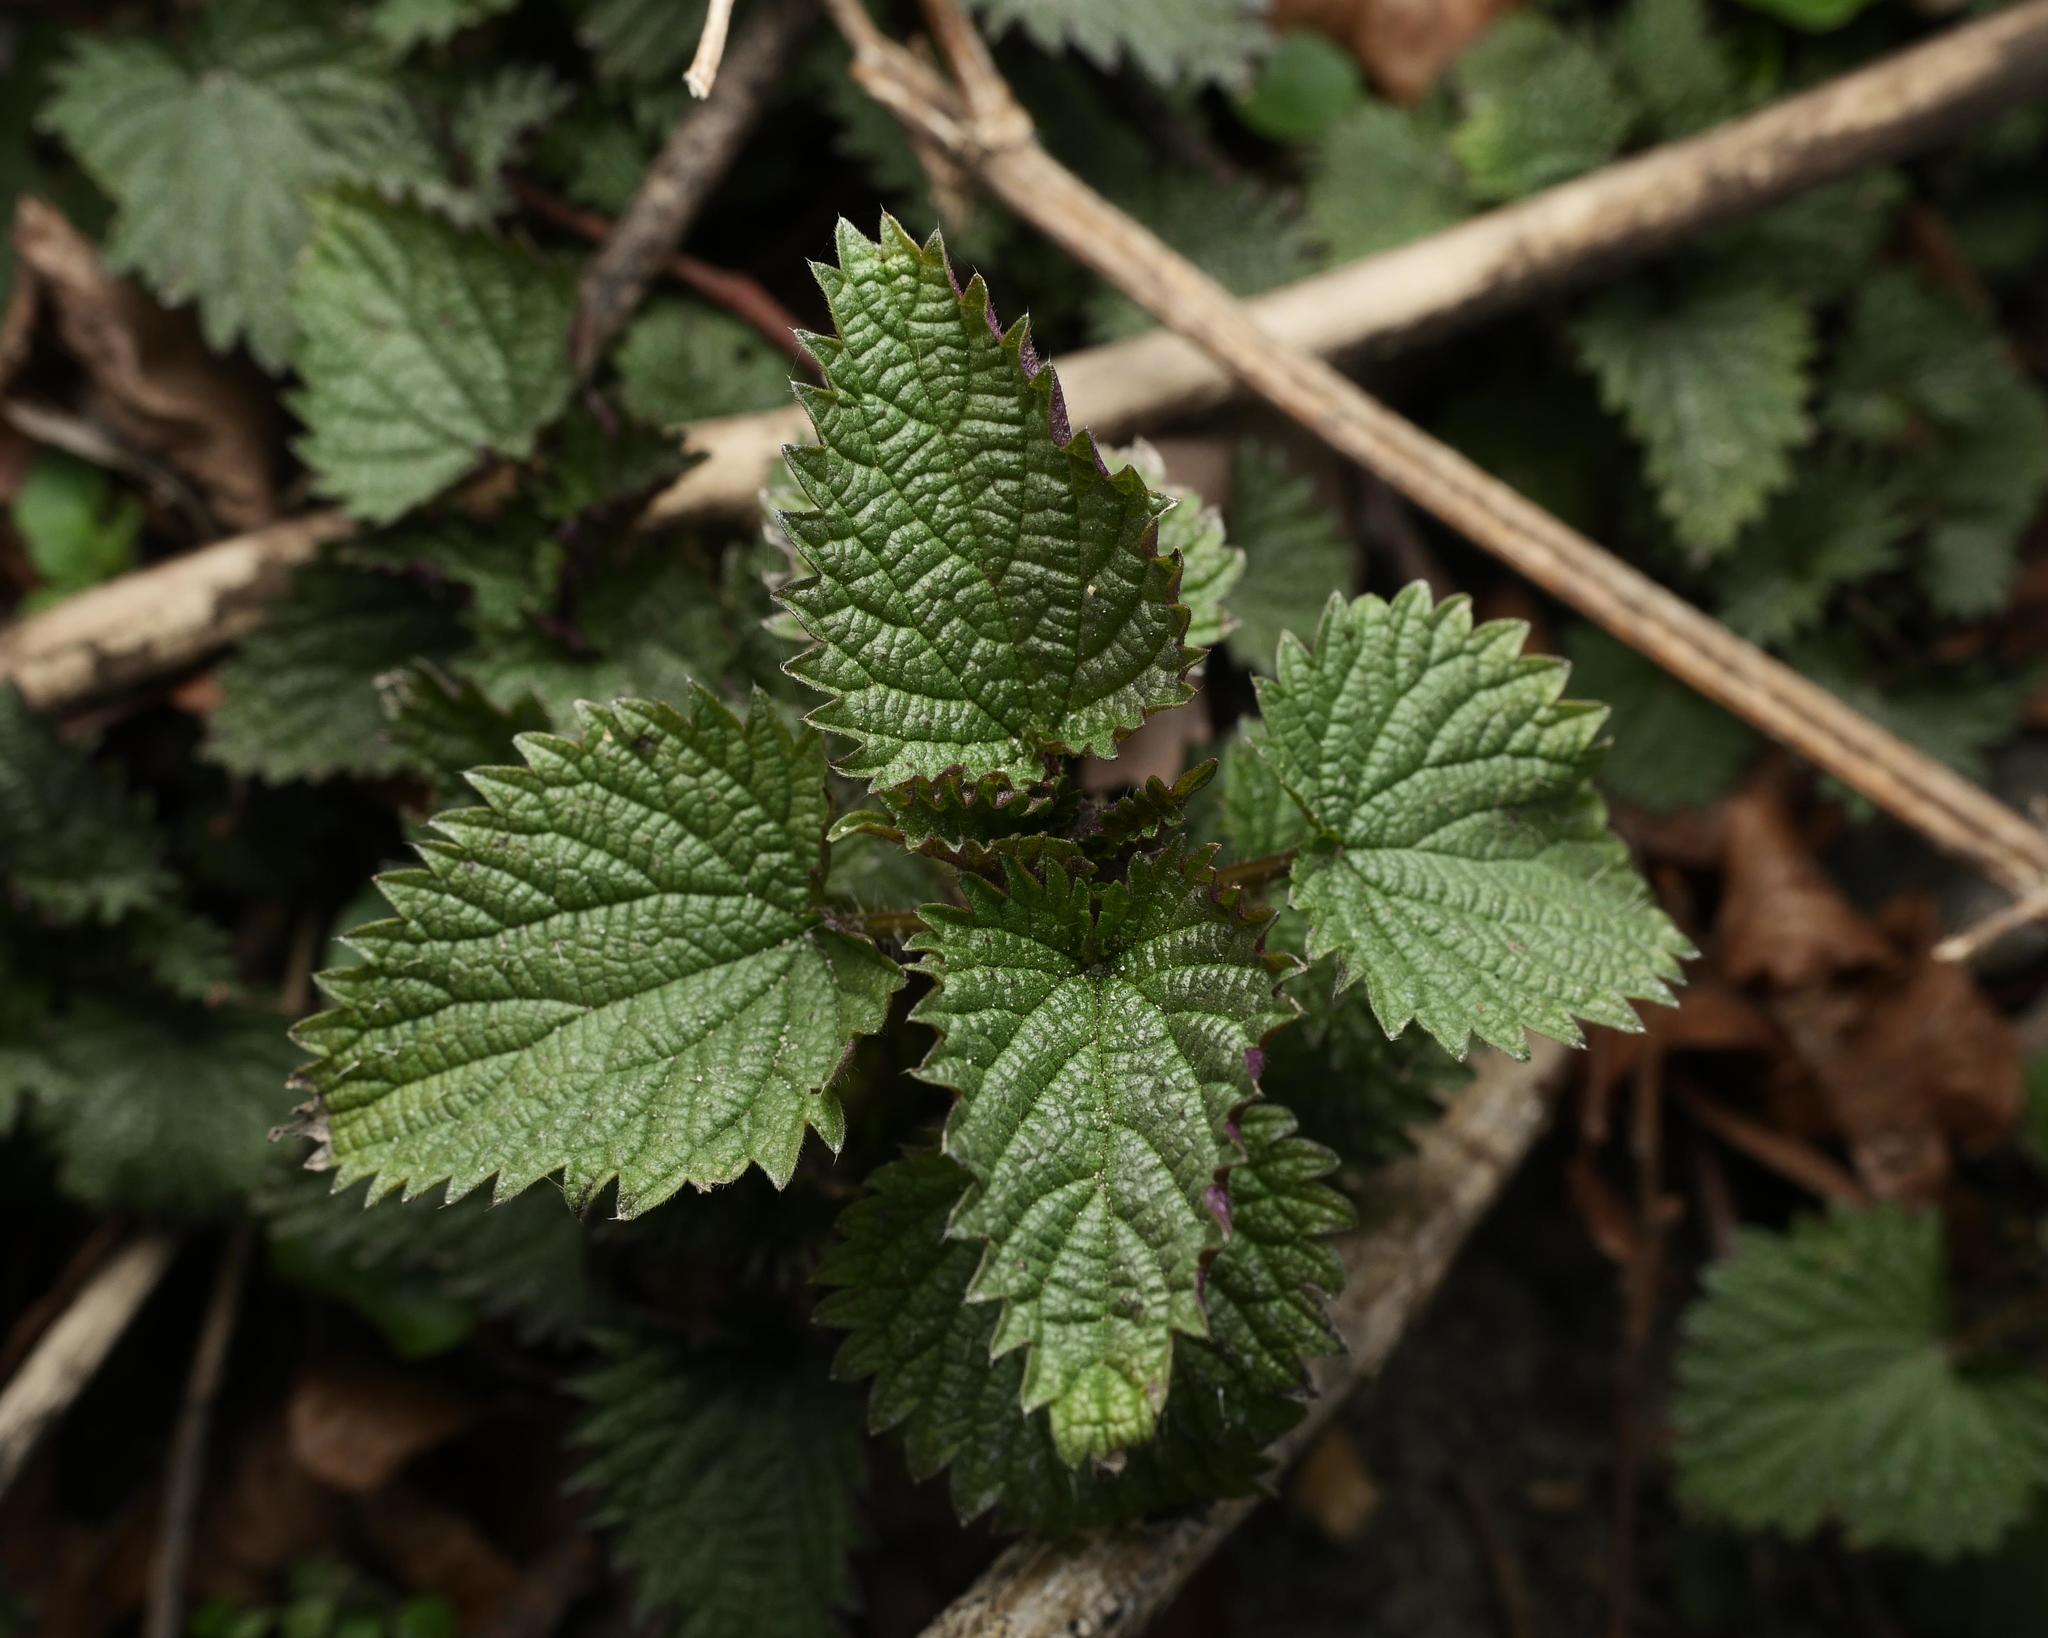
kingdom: Plantae
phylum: Tracheophyta
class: Magnoliopsida
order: Rosales
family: Urticaceae
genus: Urtica
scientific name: Urtica dioica
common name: Common nettle
